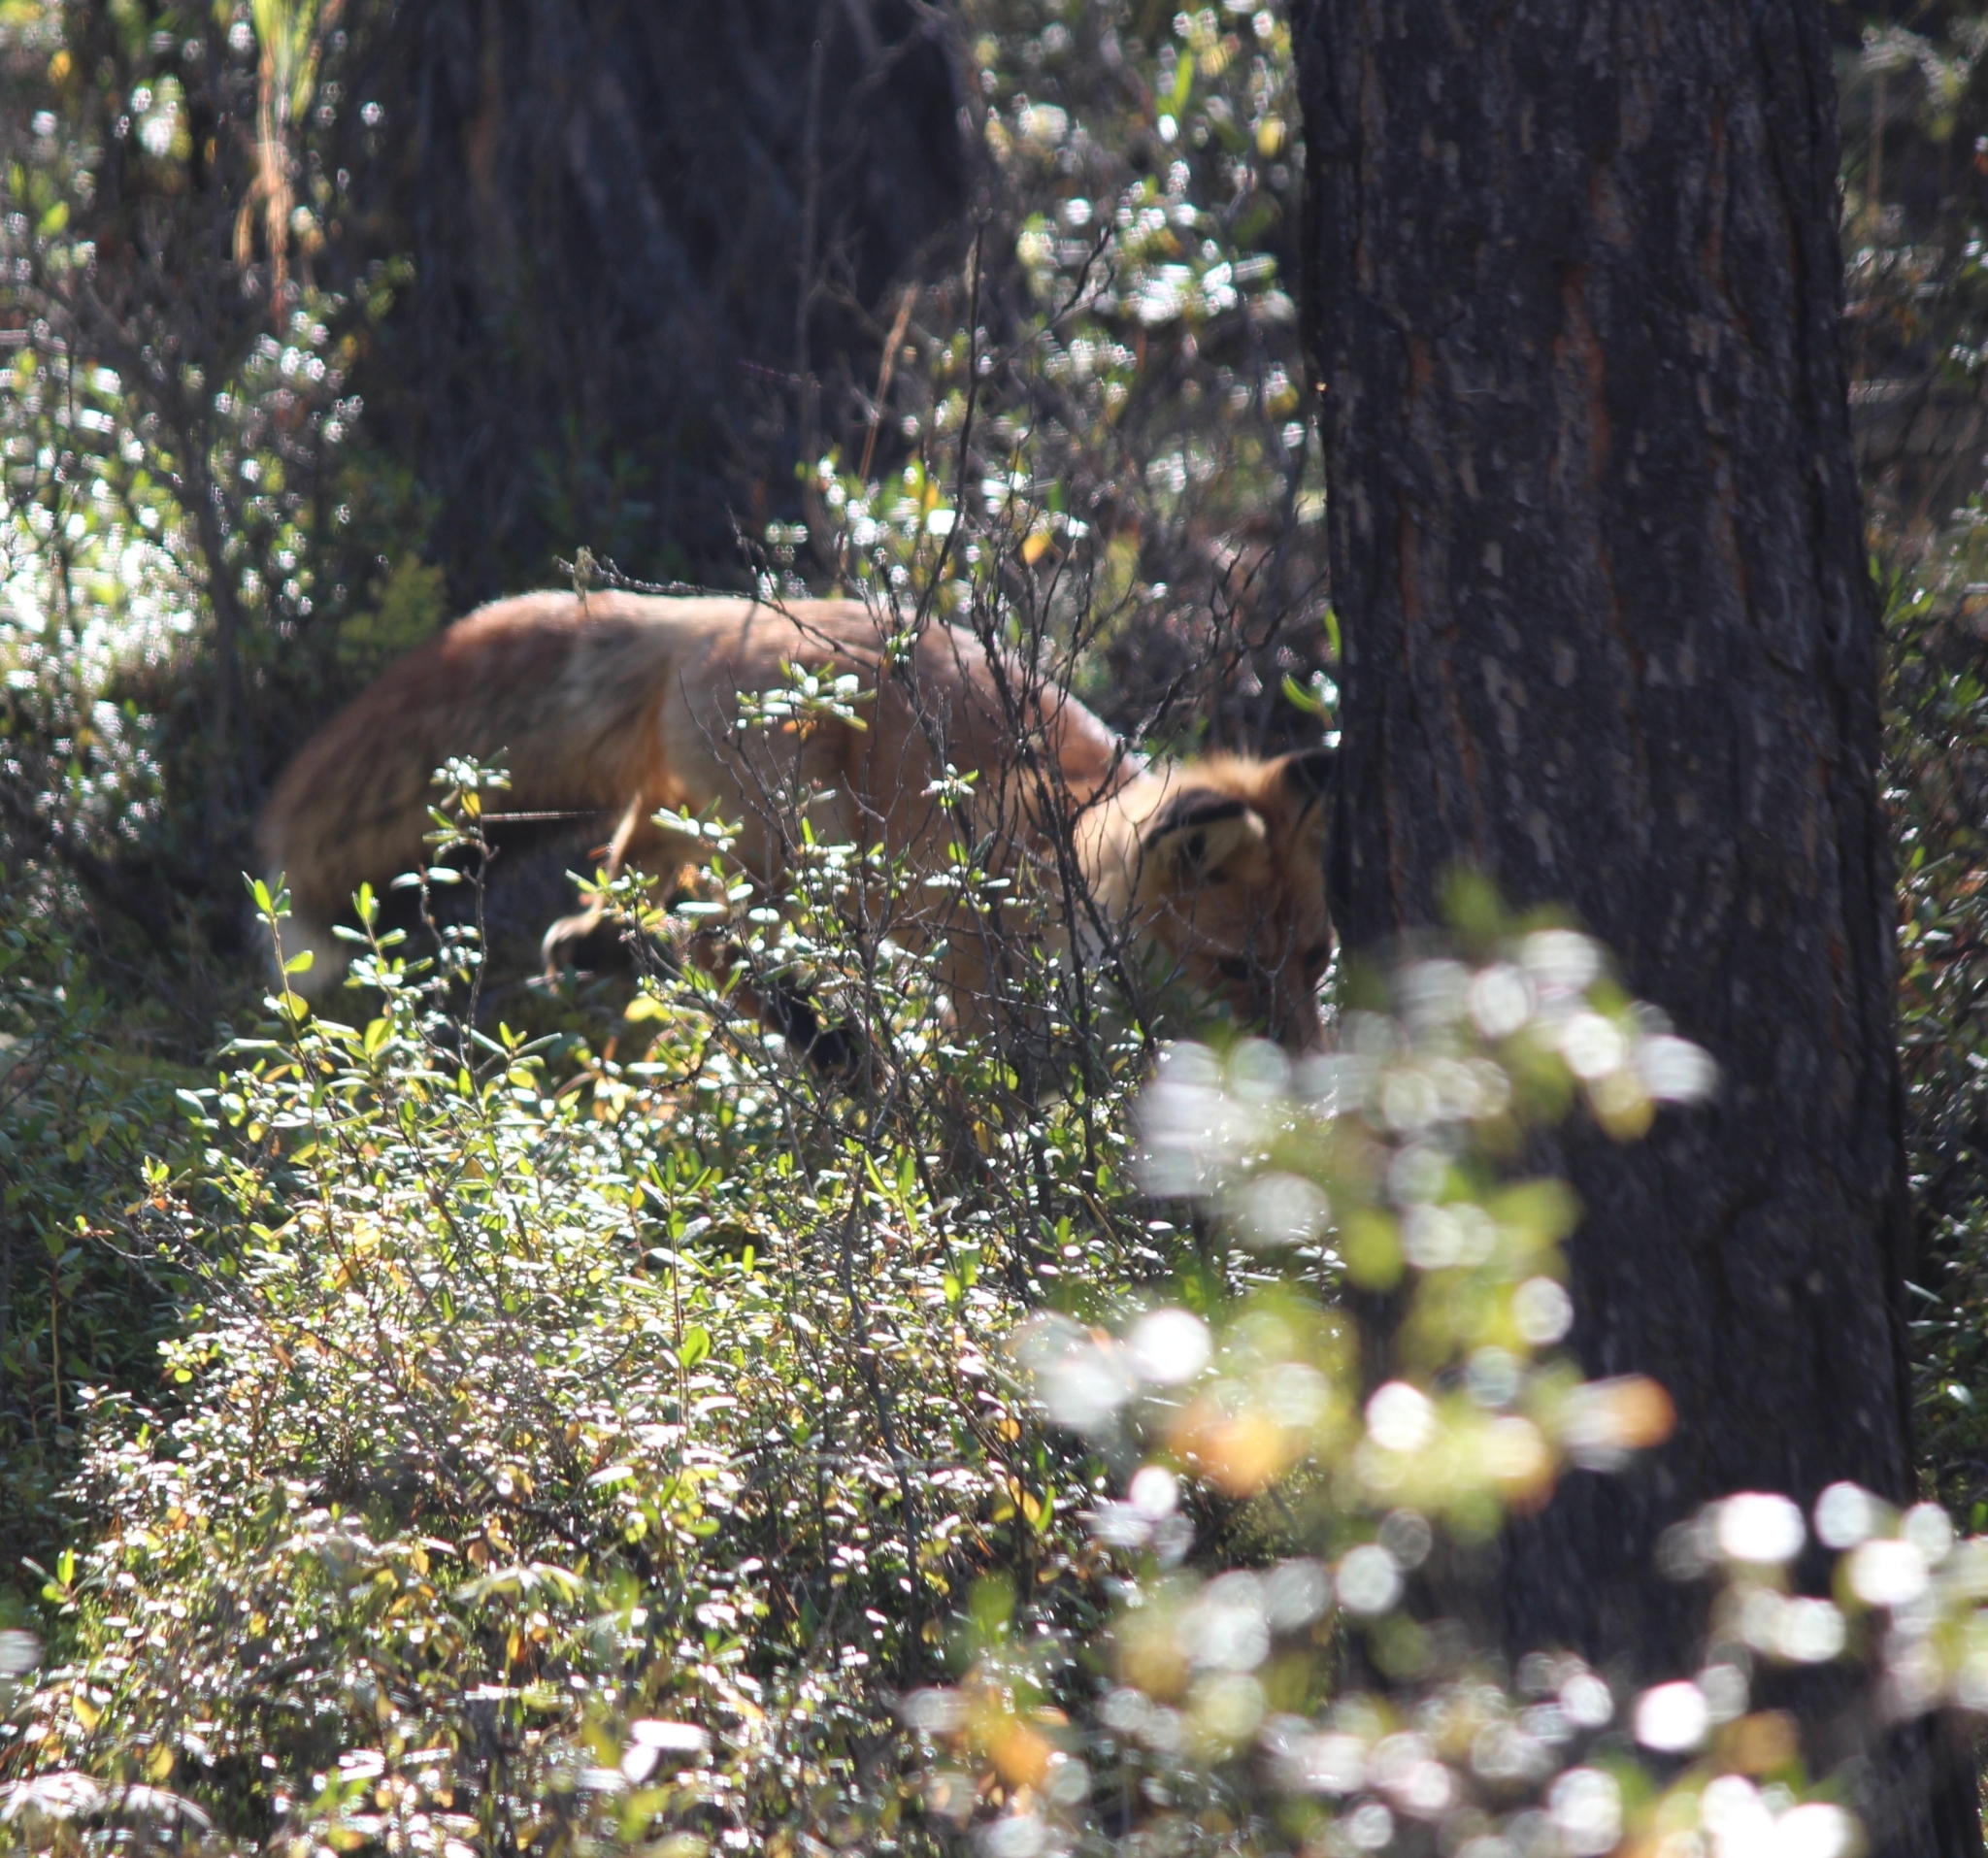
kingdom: Animalia
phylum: Chordata
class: Mammalia
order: Carnivora
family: Canidae
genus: Vulpes
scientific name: Vulpes vulpes
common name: Red fox
